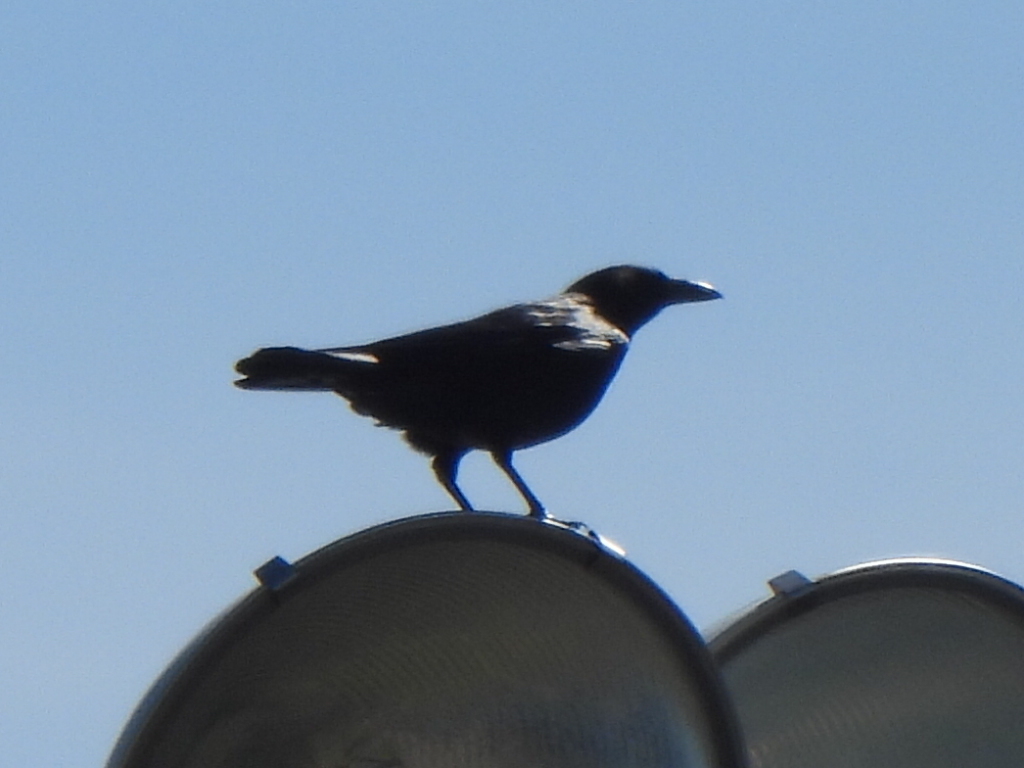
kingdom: Animalia
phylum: Chordata
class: Aves
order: Passeriformes
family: Corvidae
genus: Corvus
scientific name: Corvus brachyrhynchos
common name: American crow
